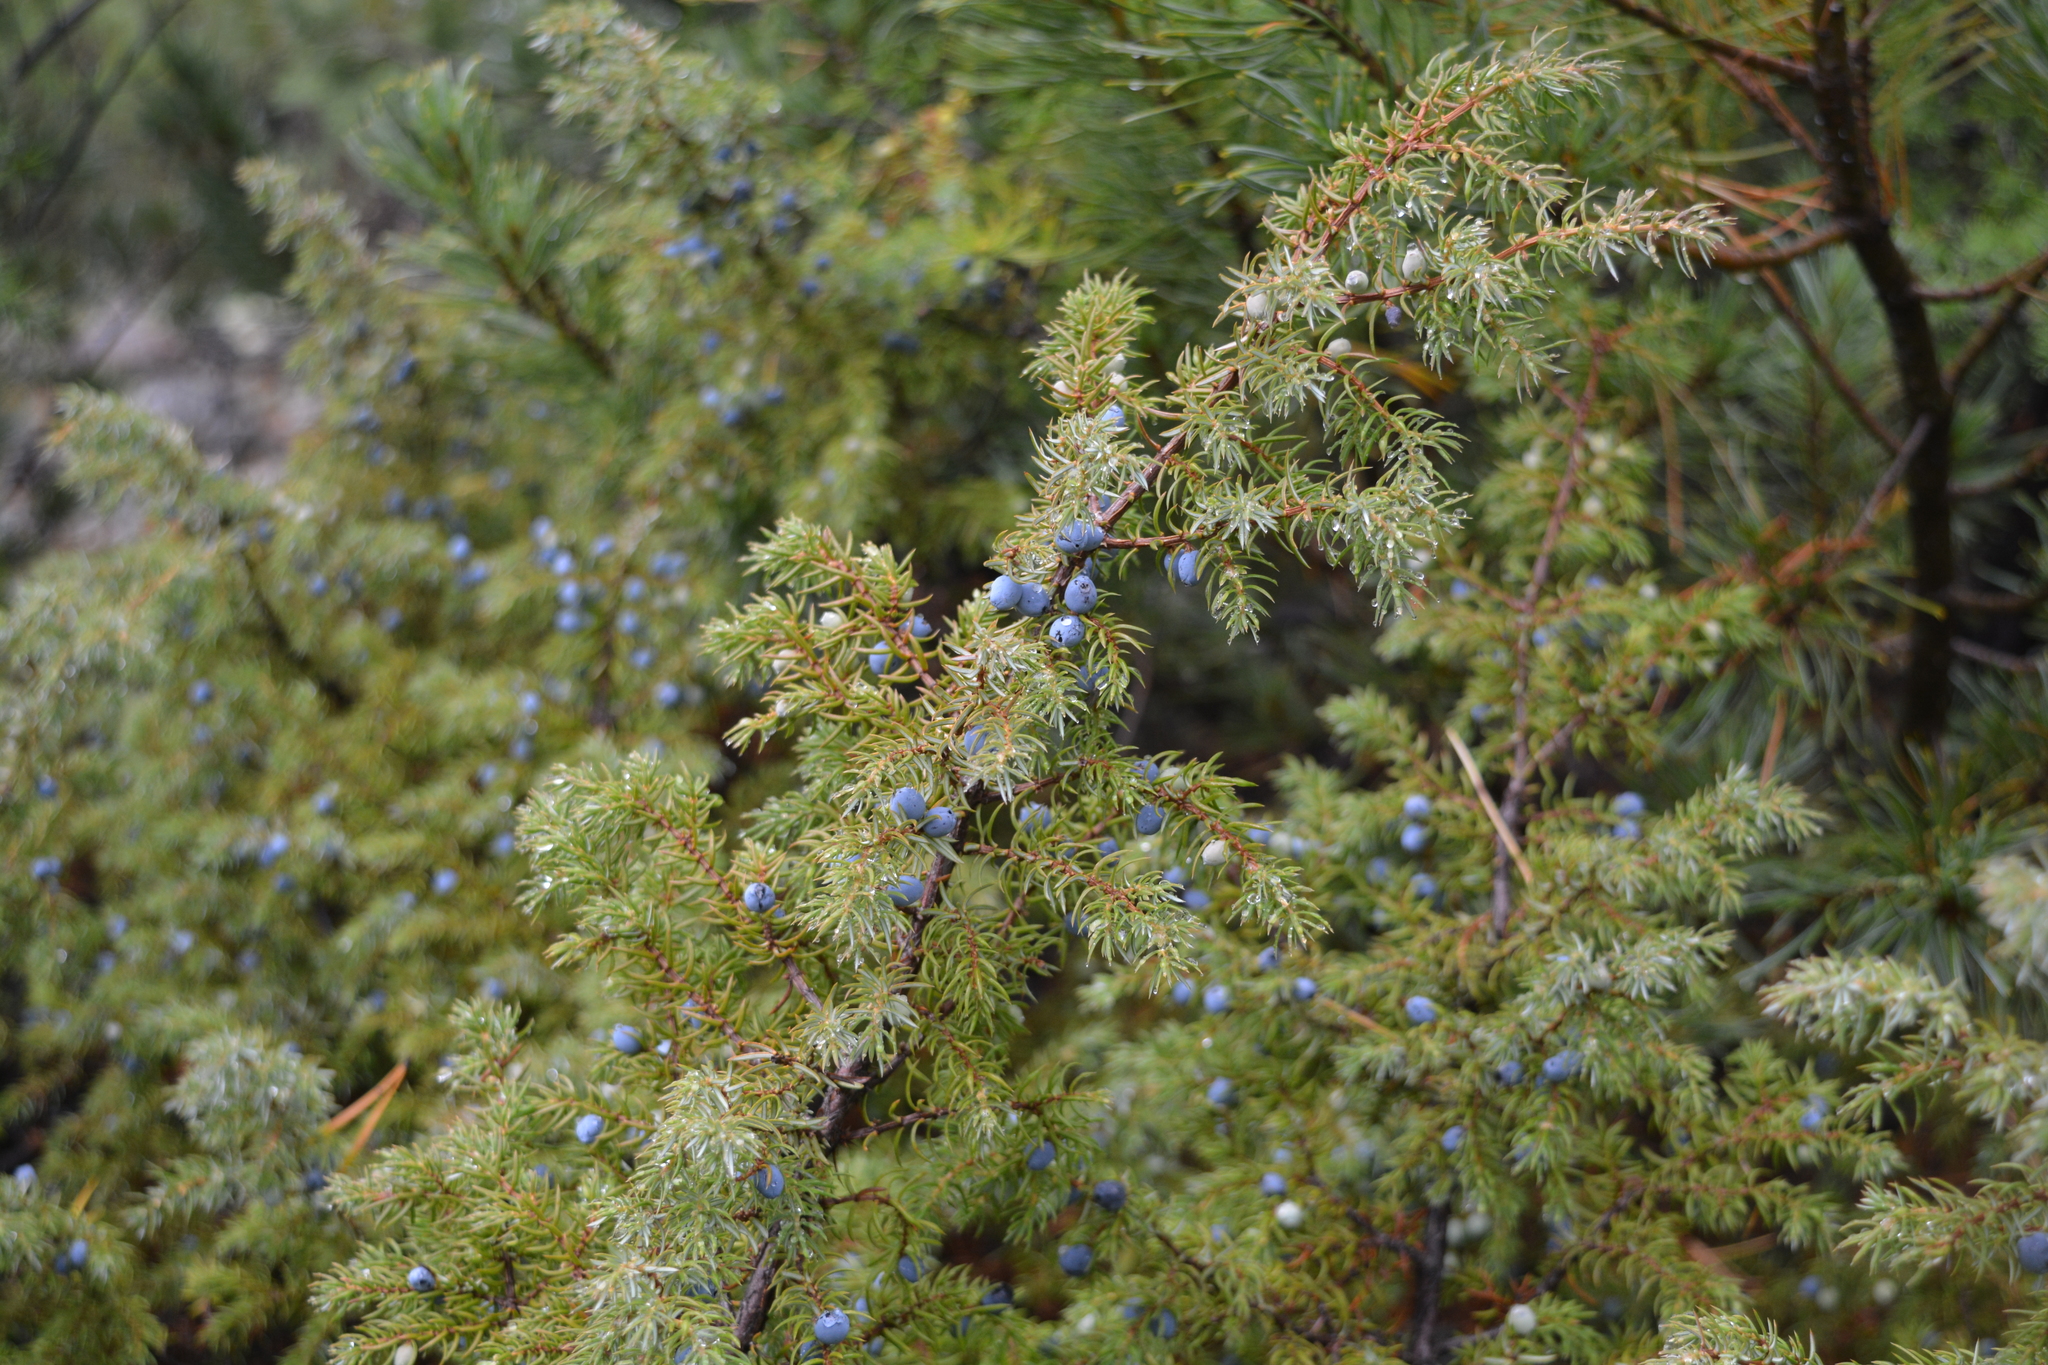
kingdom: Plantae
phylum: Tracheophyta
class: Pinopsida
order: Pinales
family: Cupressaceae
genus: Juniperus
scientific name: Juniperus communis
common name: Common juniper
